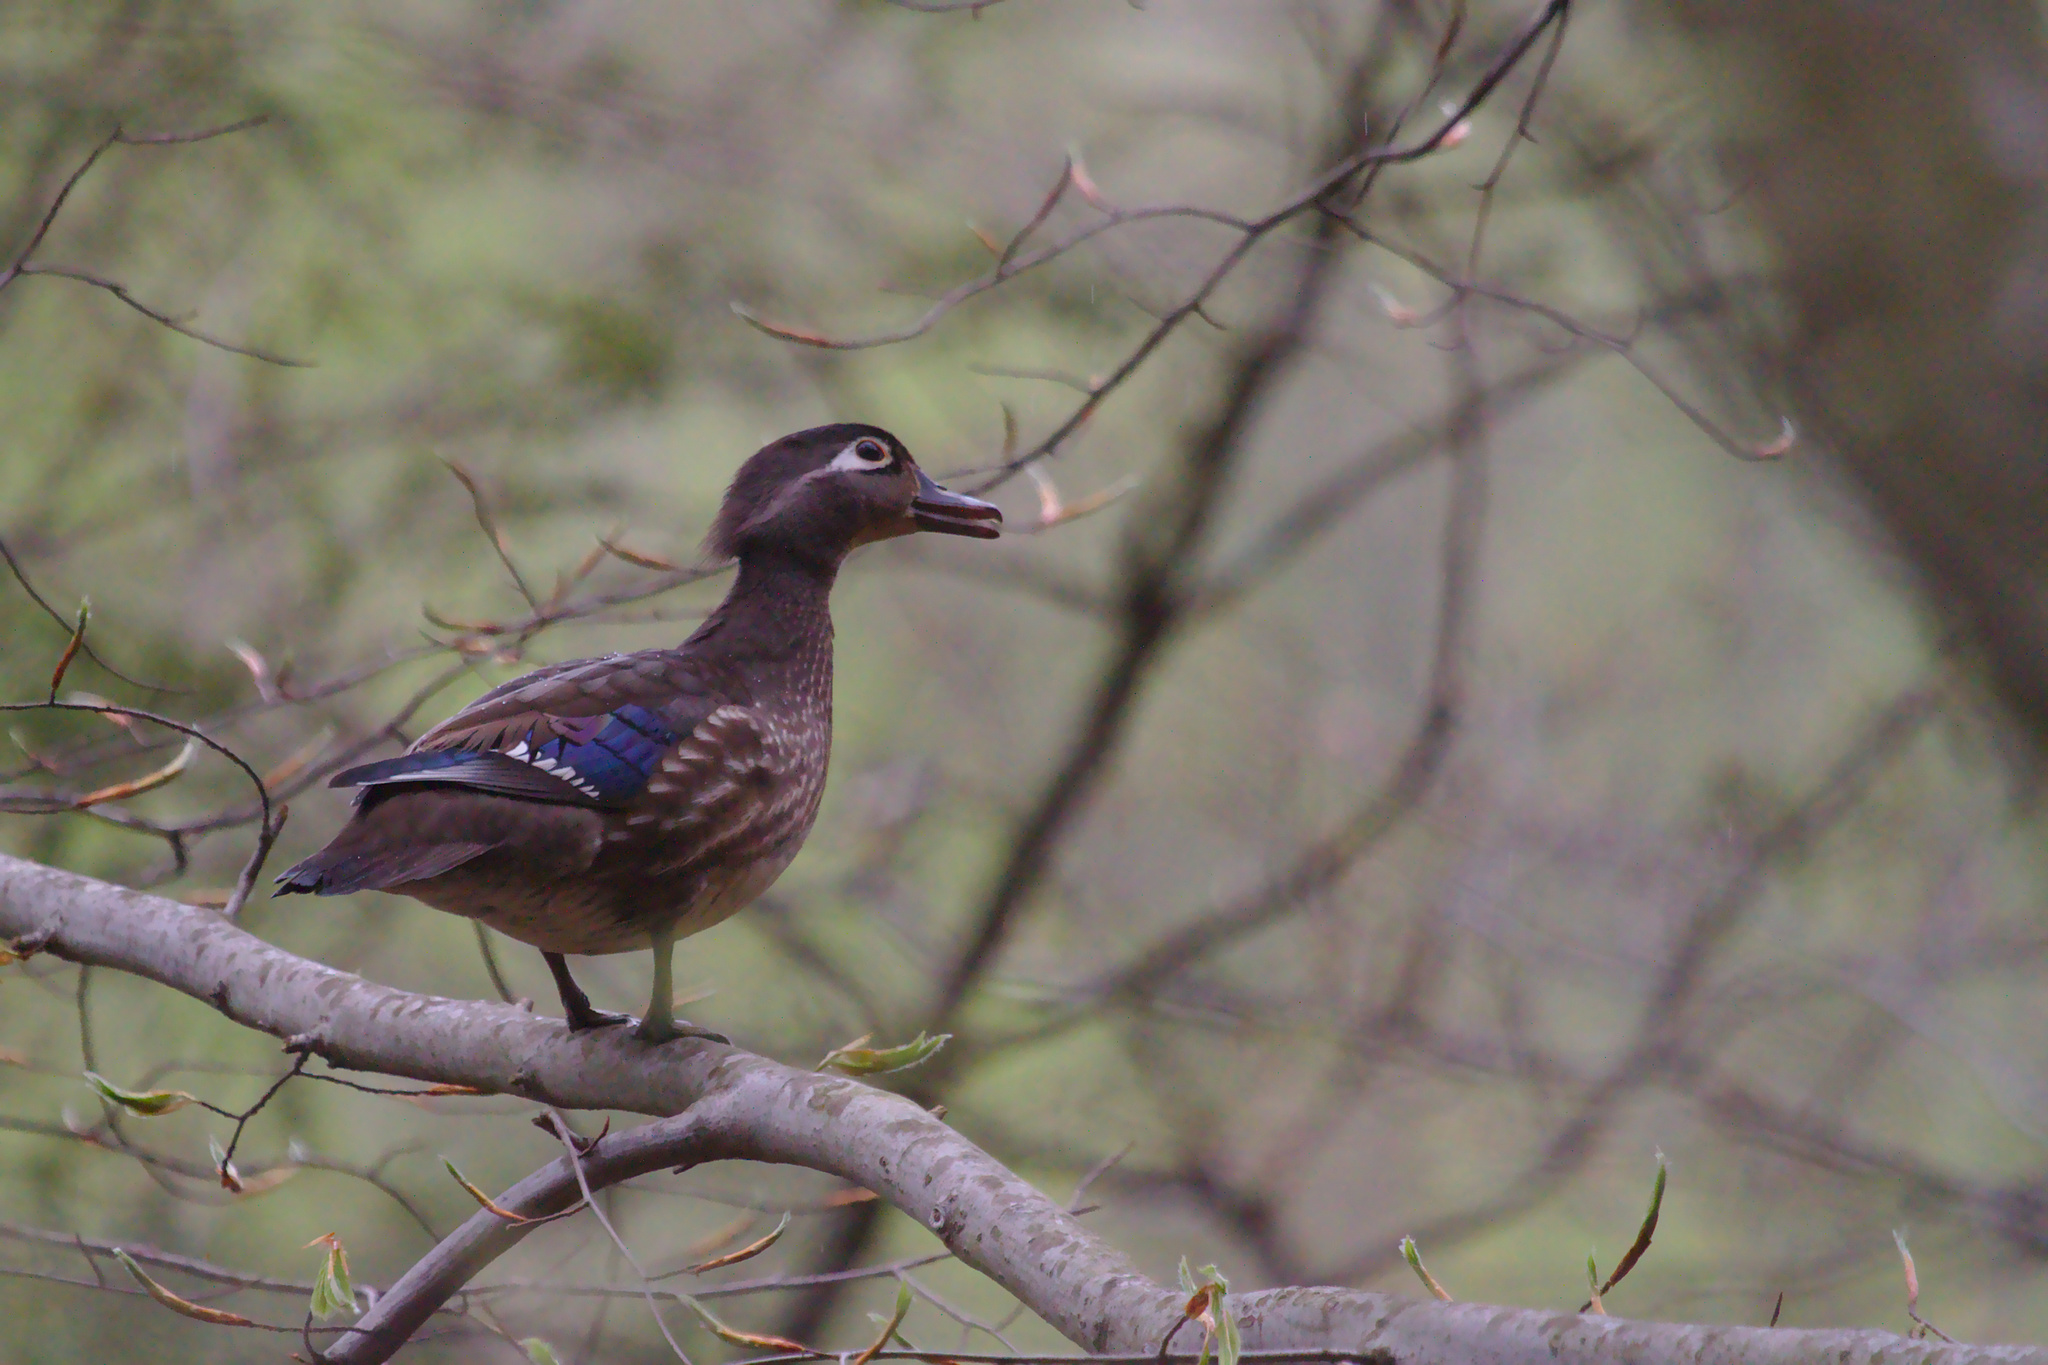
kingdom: Animalia
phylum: Chordata
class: Aves
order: Anseriformes
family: Anatidae
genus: Aix
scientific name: Aix sponsa
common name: Wood duck
